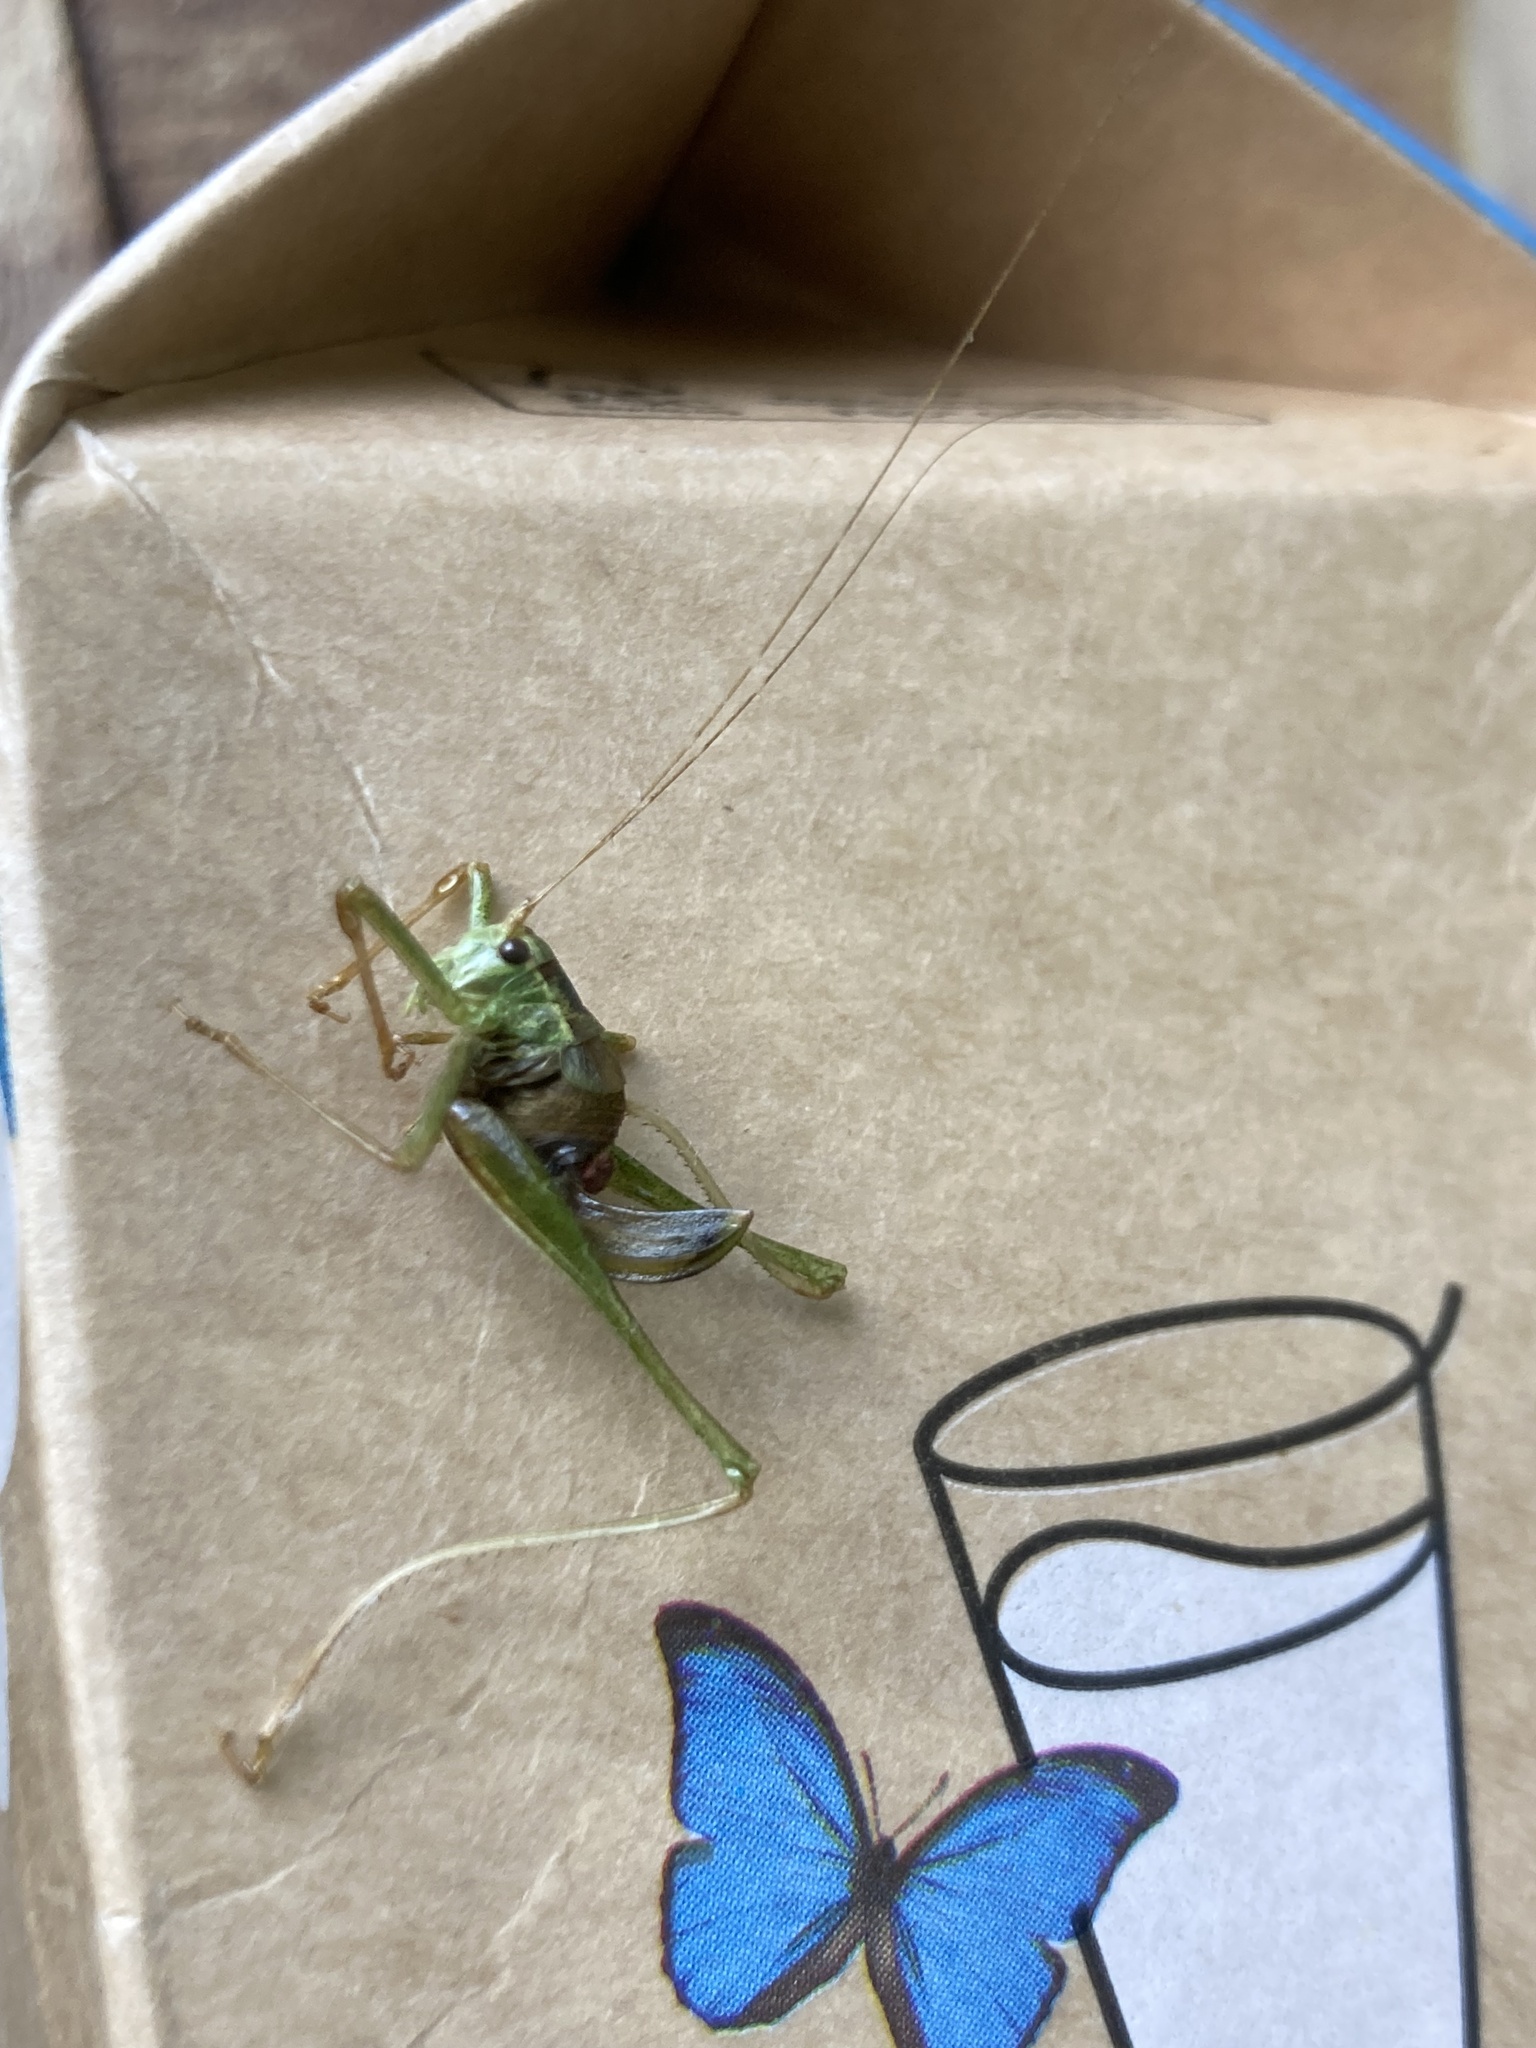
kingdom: Animalia
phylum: Arthropoda
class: Insecta
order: Orthoptera
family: Tettigoniidae
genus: Leptophyes
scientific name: Leptophyes punctatissima
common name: Speckled bush-cricket
